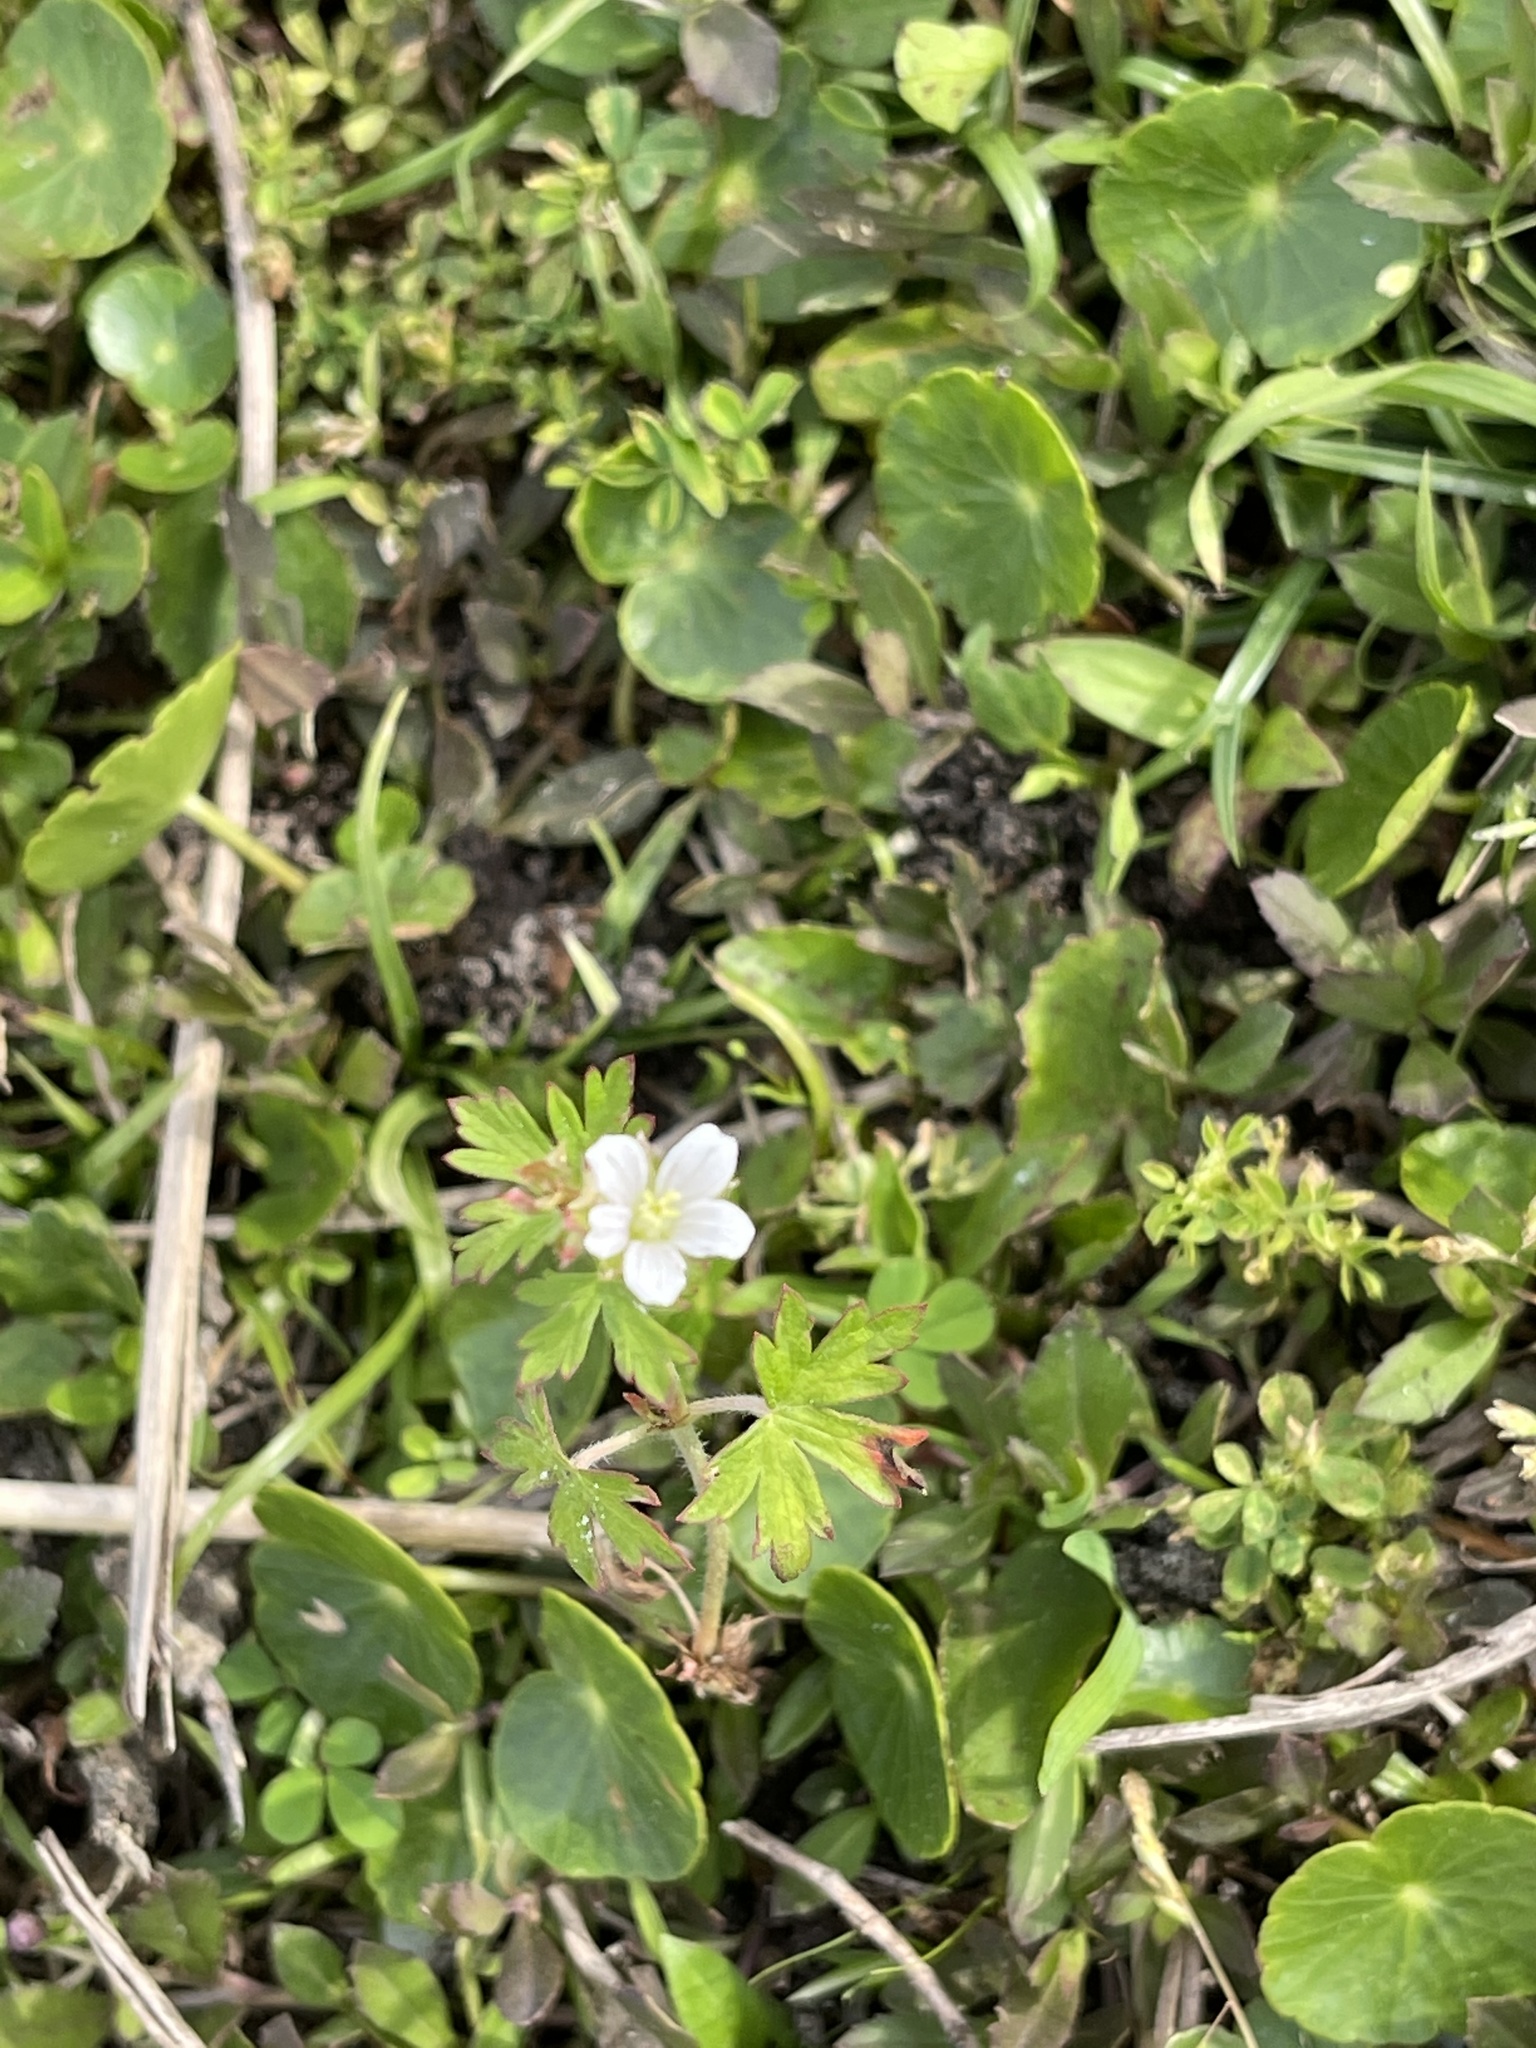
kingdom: Plantae
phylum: Tracheophyta
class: Magnoliopsida
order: Geraniales
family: Geraniaceae
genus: Geranium
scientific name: Geranium carolinianum
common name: Carolina crane's-bill
